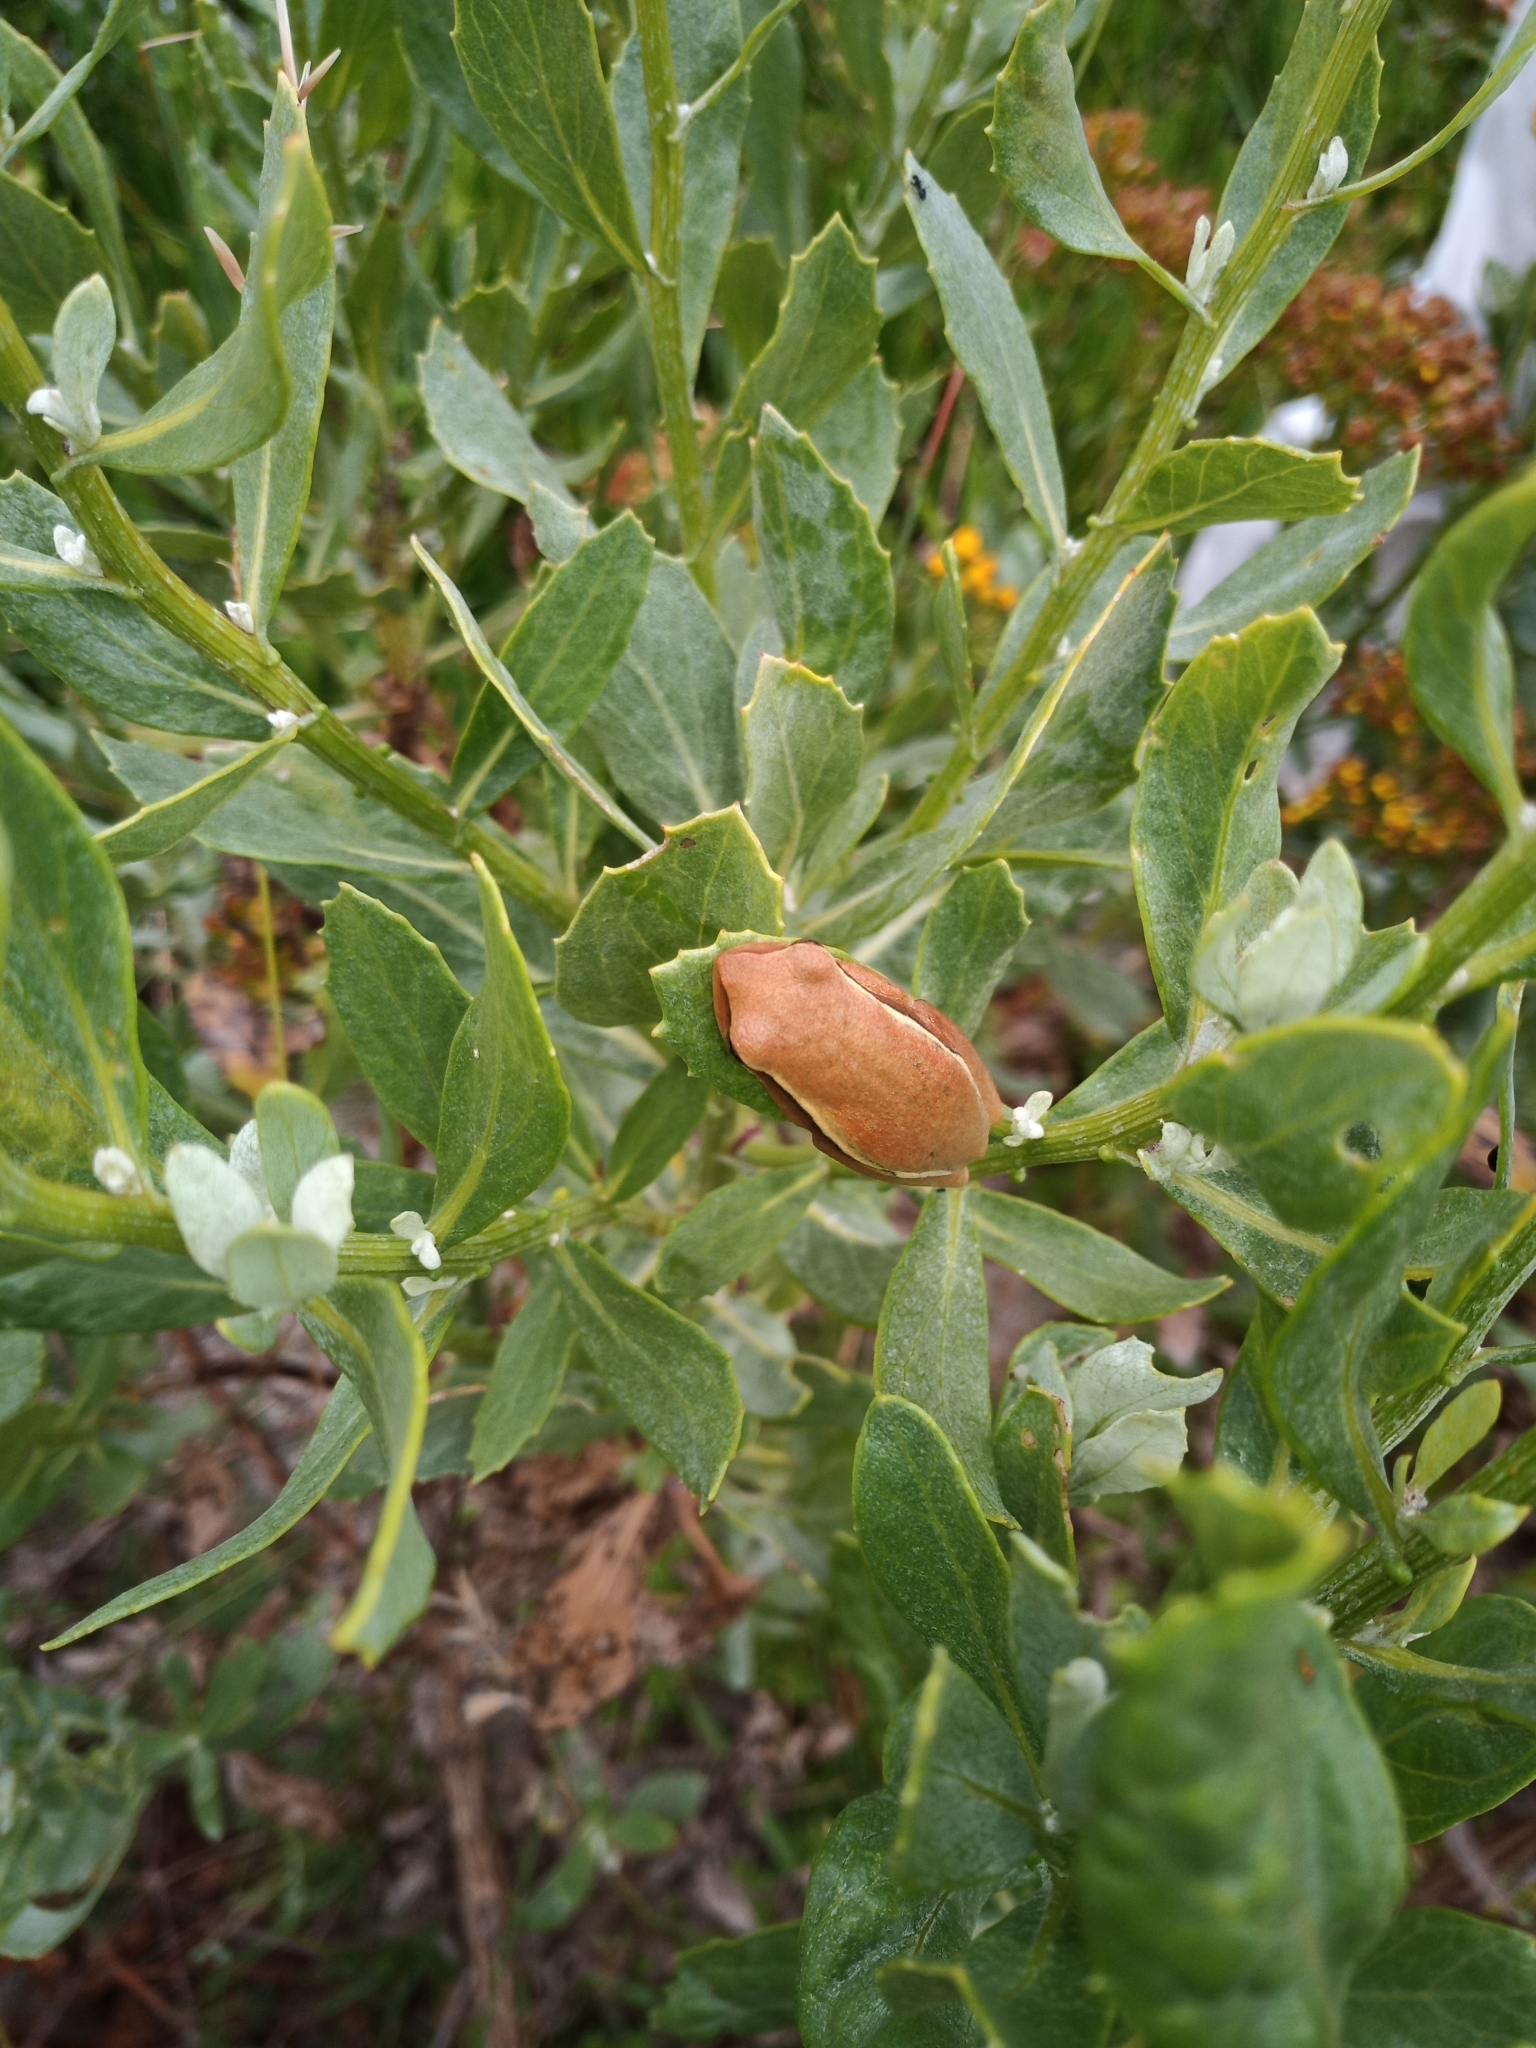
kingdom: Animalia
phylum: Chordata
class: Amphibia
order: Anura
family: Hyperoliidae
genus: Hyperolius
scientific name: Hyperolius horstockii
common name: Arum lily frog
